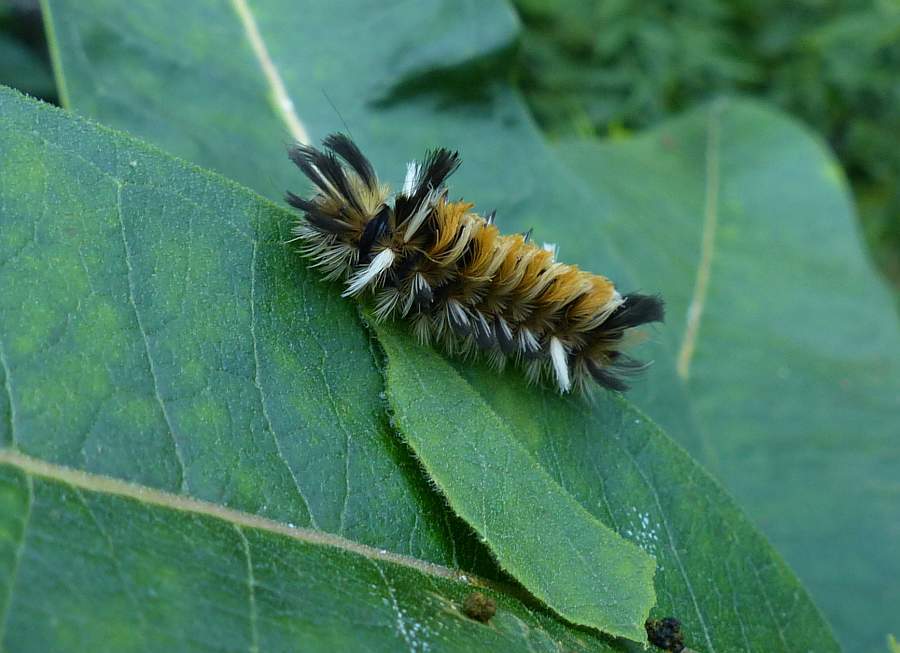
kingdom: Animalia
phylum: Arthropoda
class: Insecta
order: Lepidoptera
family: Erebidae
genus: Euchaetes
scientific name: Euchaetes egle
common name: Milkweed tussock moth
